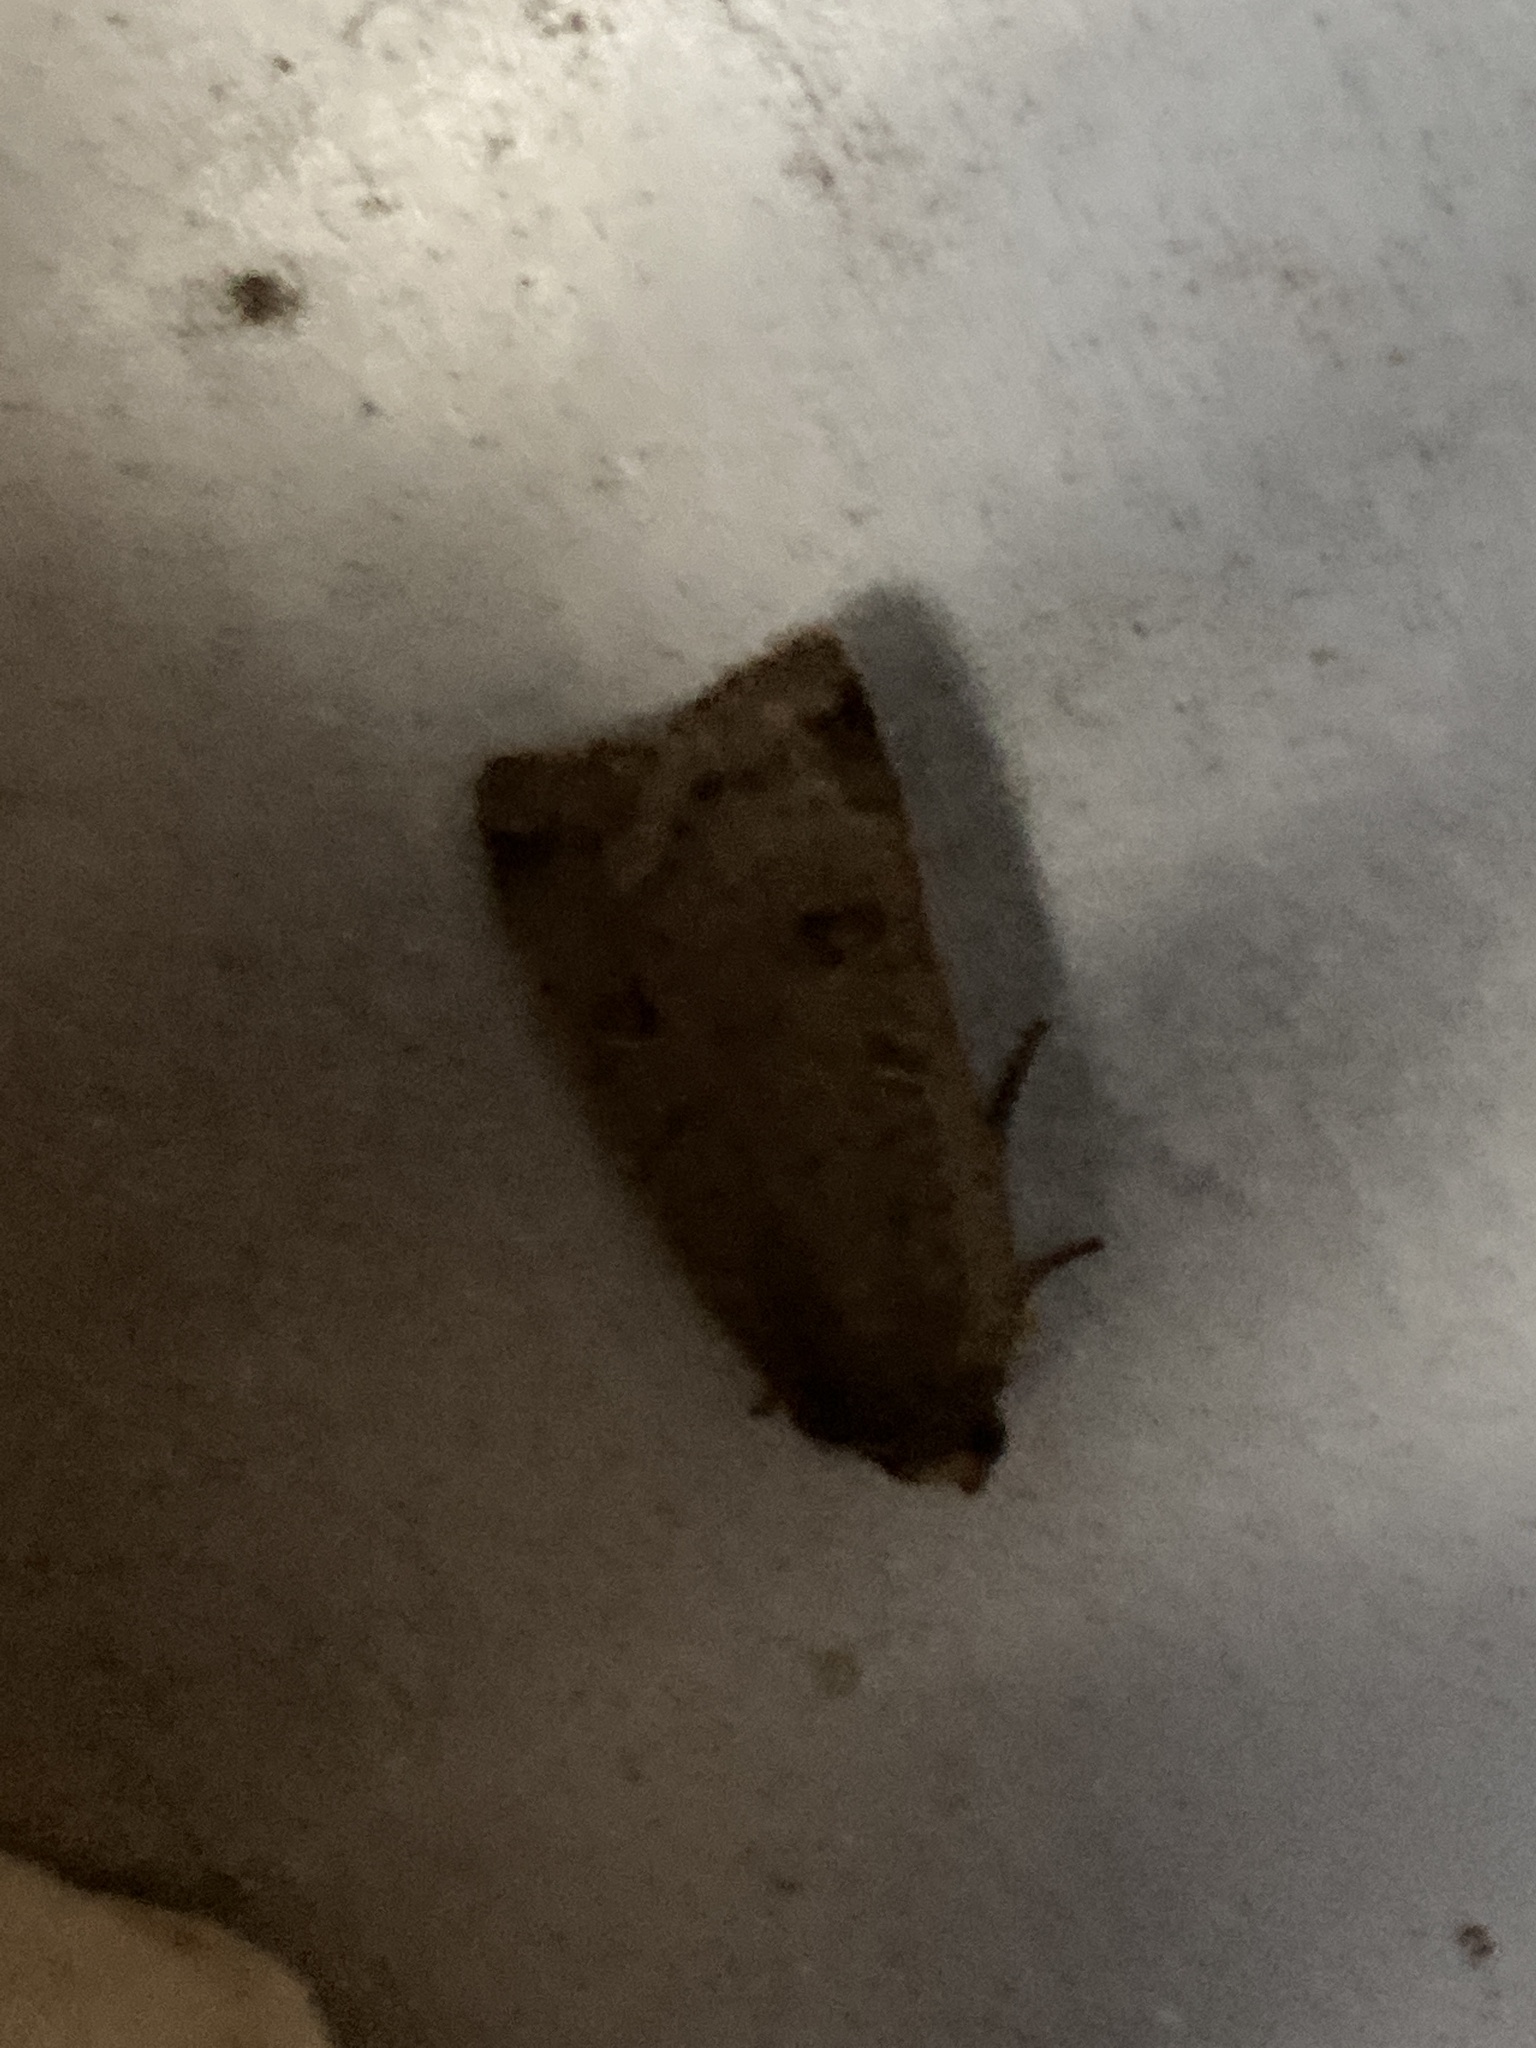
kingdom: Animalia
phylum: Arthropoda
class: Insecta
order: Lepidoptera
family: Noctuidae
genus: Noctua
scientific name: Noctua comes
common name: Lesser yellow underwing
